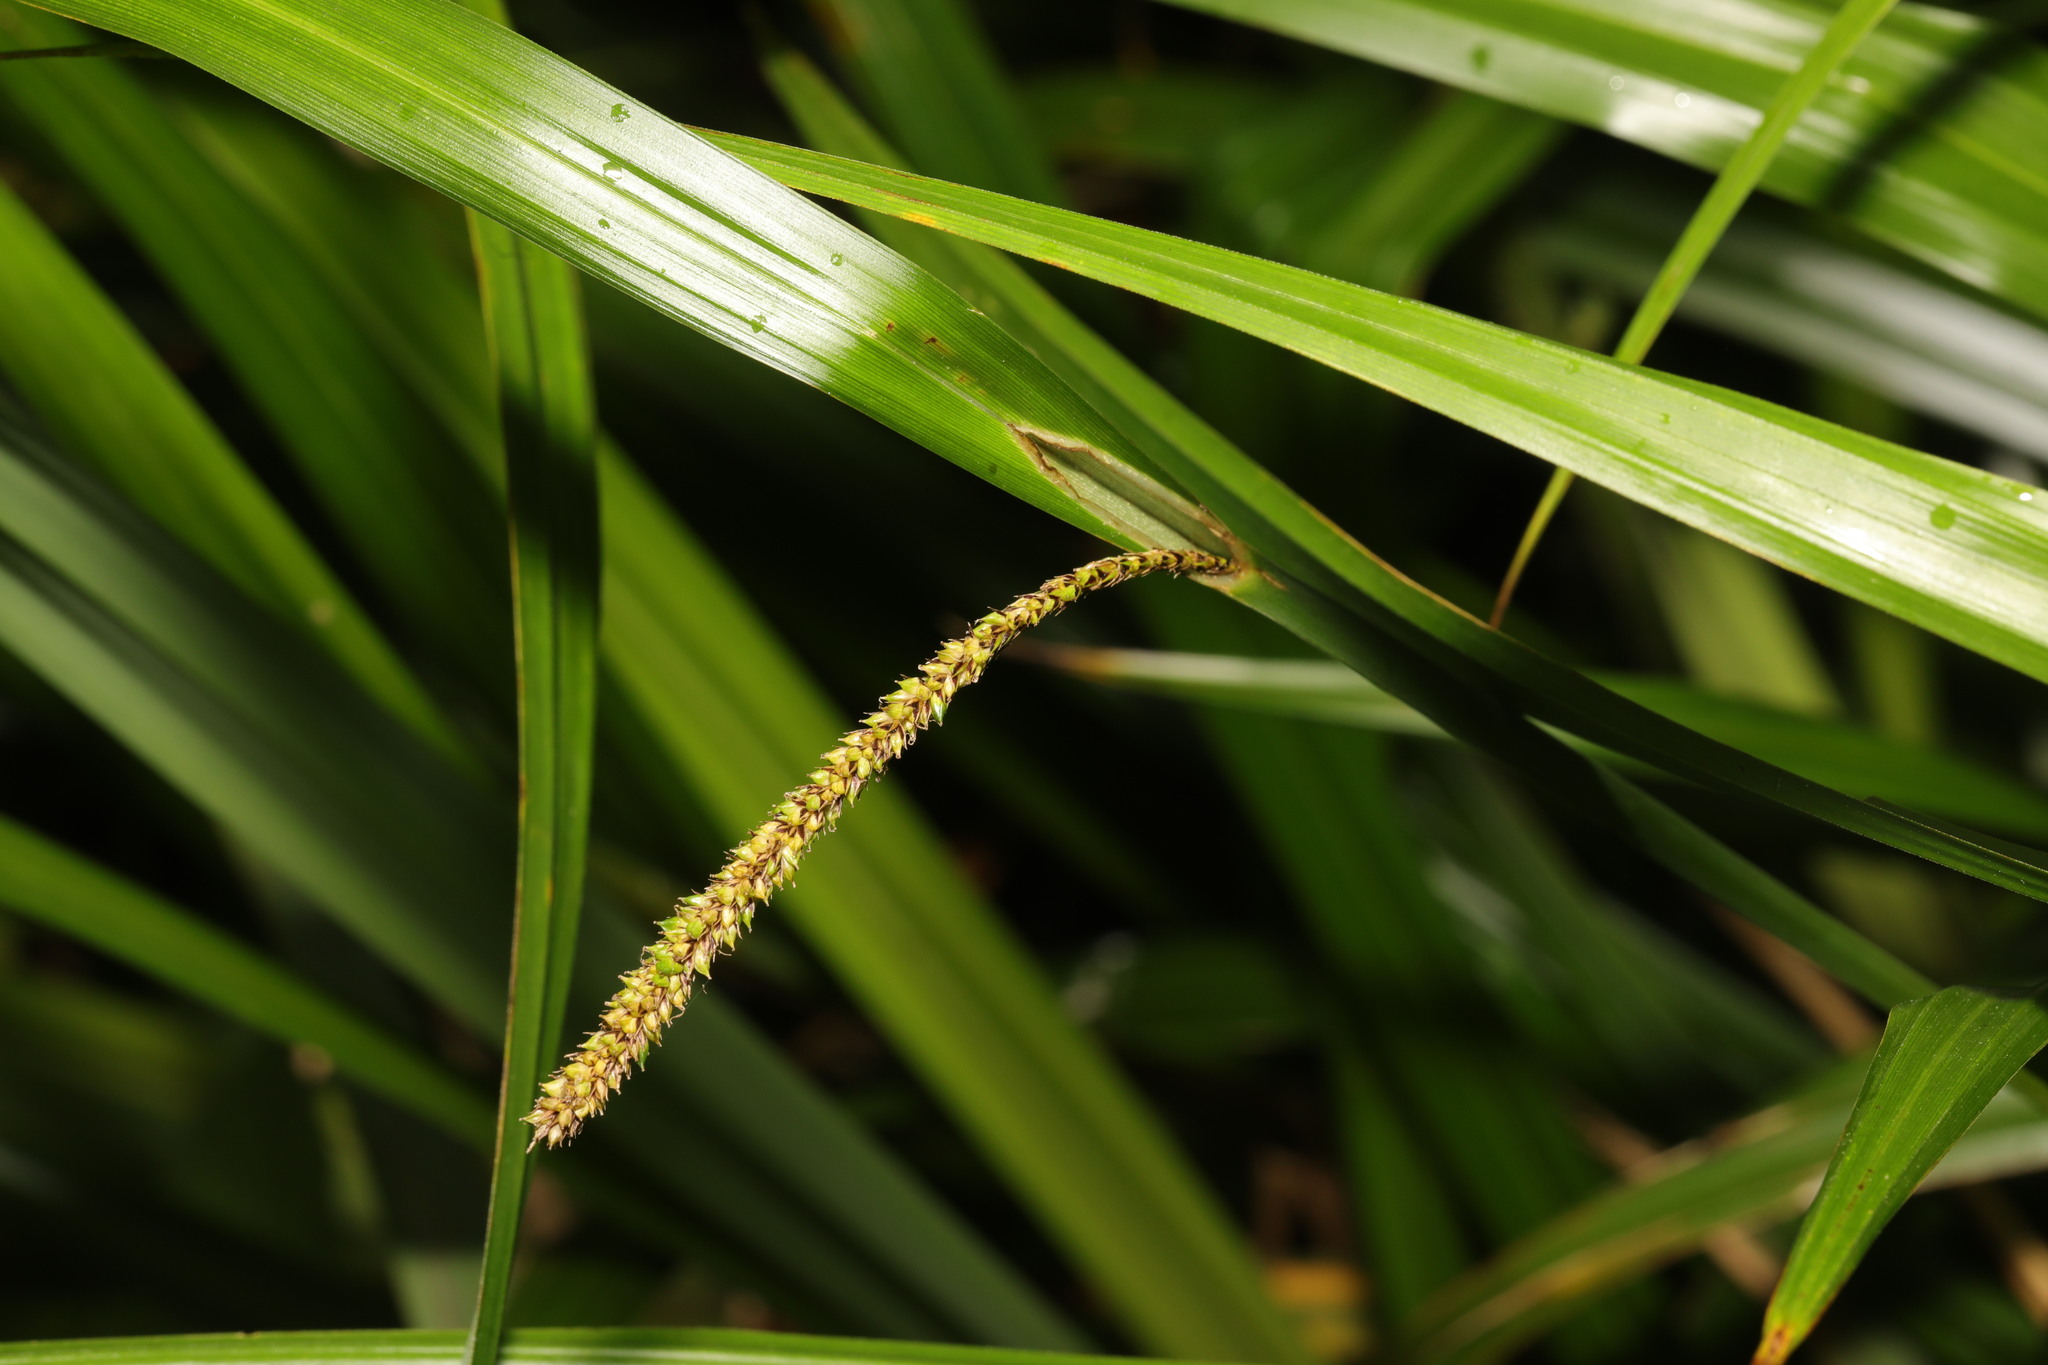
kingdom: Plantae
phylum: Tracheophyta
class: Liliopsida
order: Poales
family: Cyperaceae
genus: Carex
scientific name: Carex pendula
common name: Pendulous sedge
